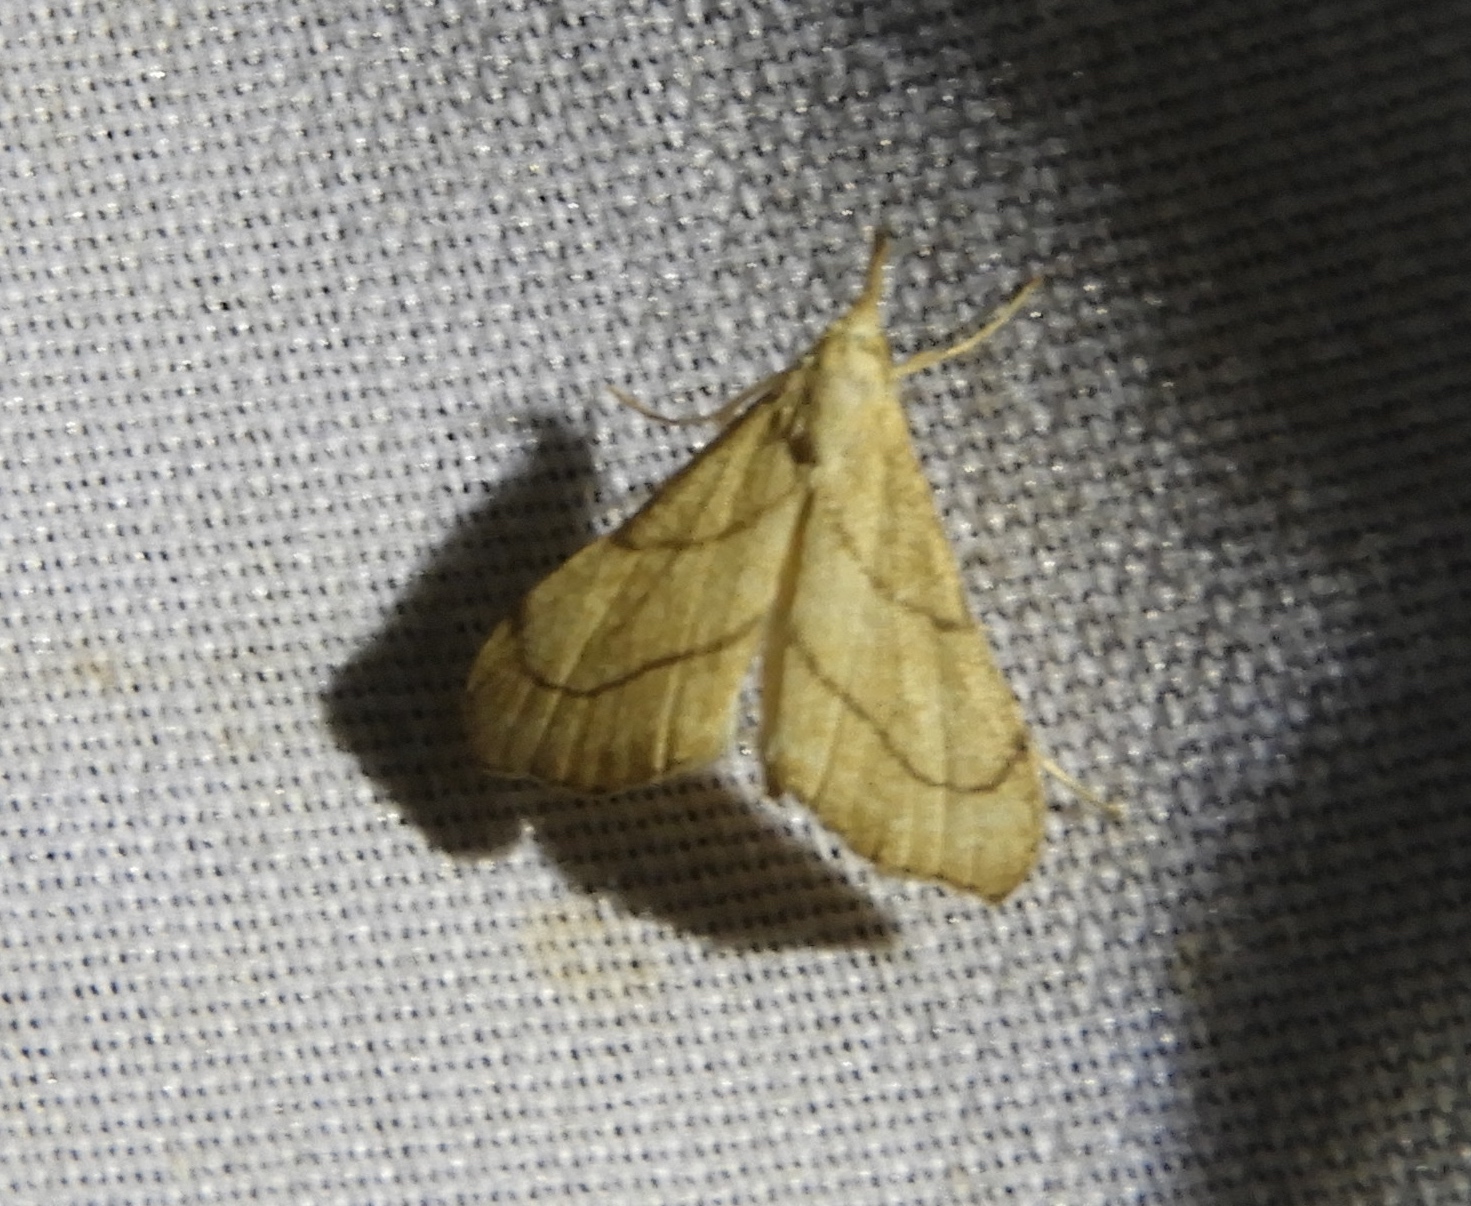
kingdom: Animalia
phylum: Arthropoda
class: Insecta
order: Lepidoptera
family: Erebidae
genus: Macrochilo
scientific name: Macrochilo litophora
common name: Brown-lined owlet
